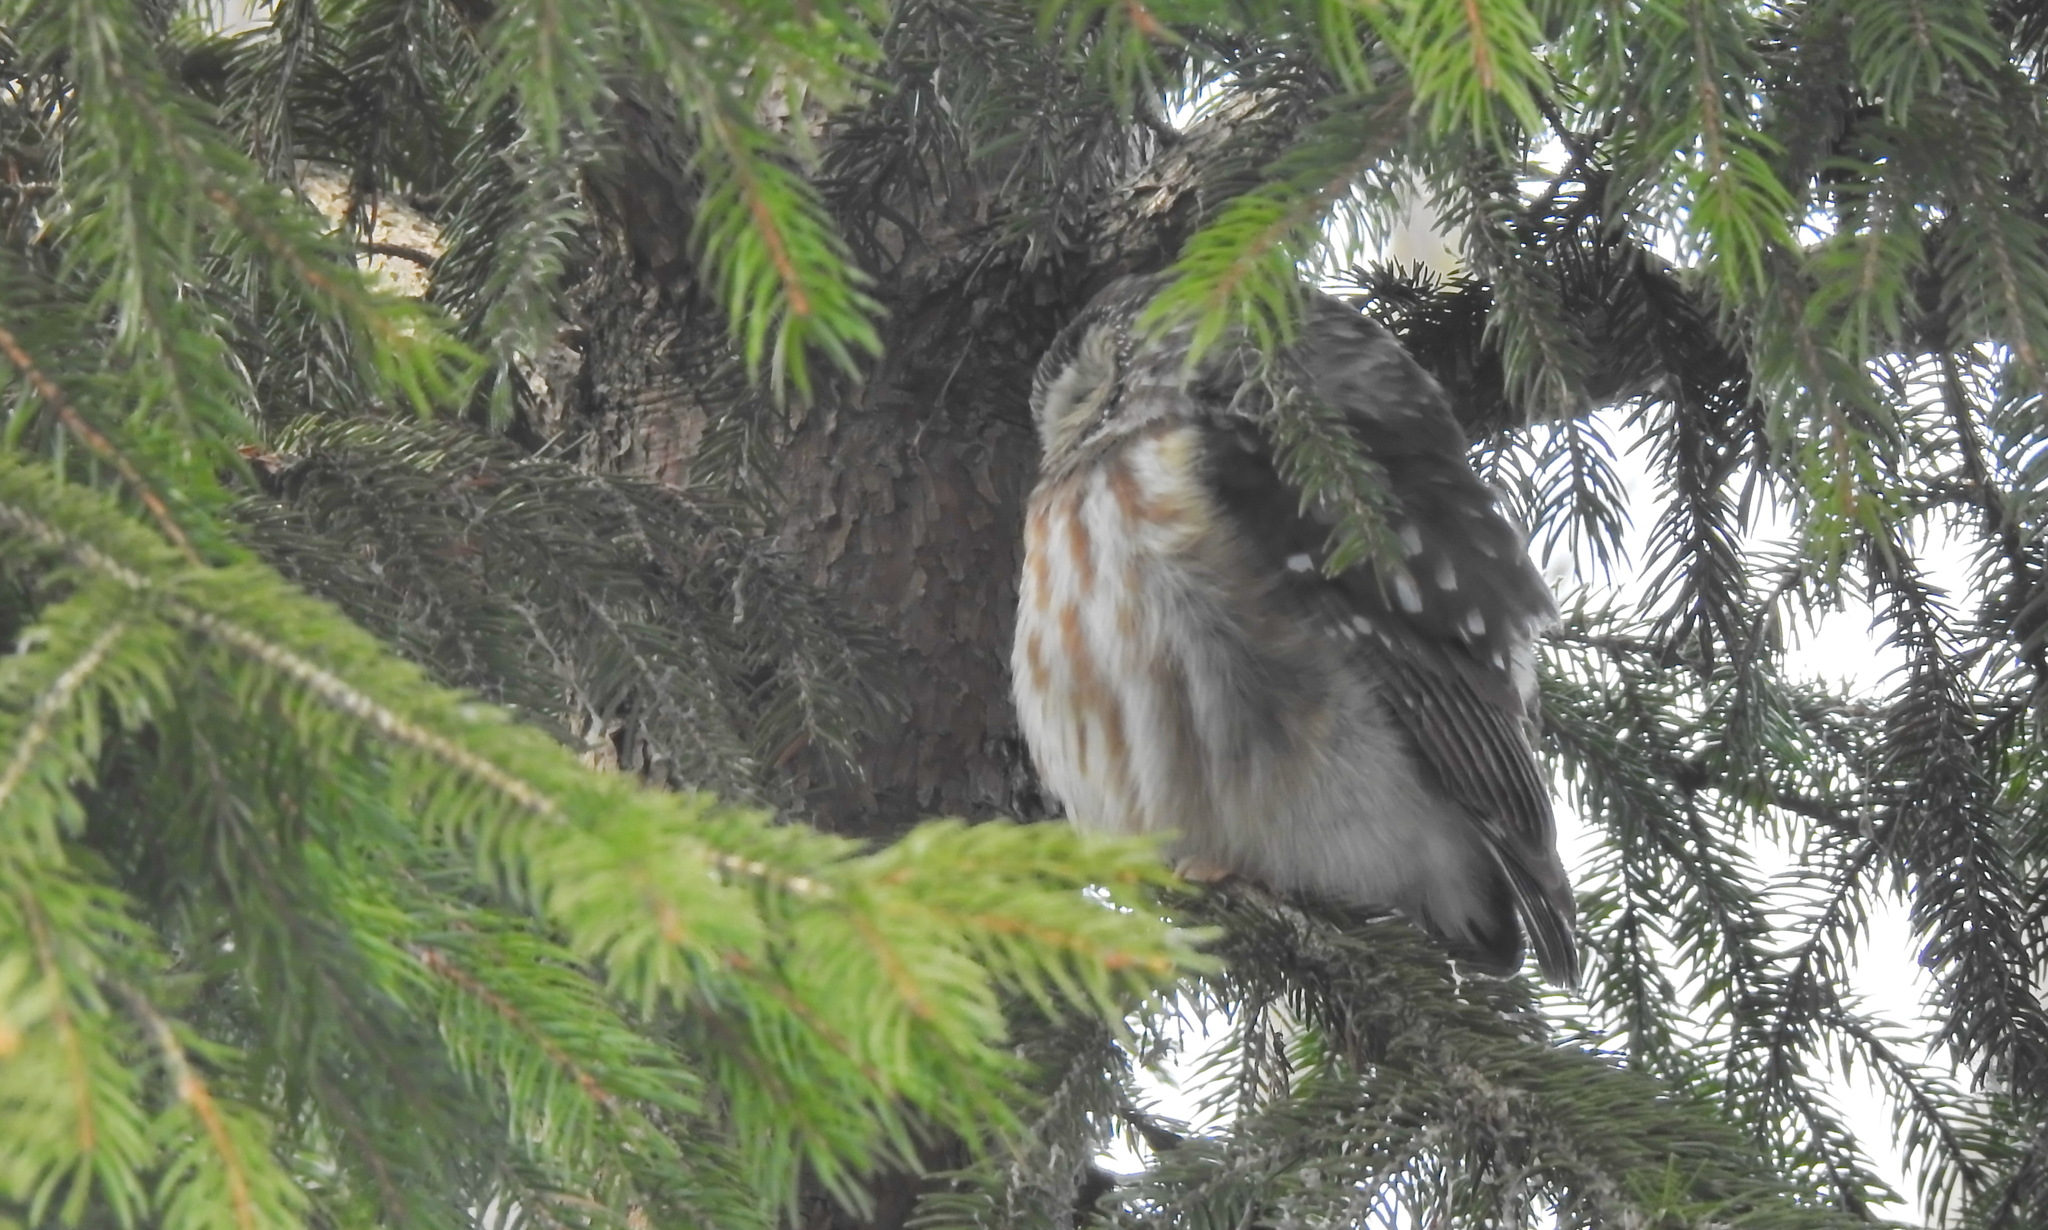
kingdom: Animalia
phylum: Chordata
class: Aves
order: Strigiformes
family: Strigidae
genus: Aegolius
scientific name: Aegolius acadicus
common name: Northern saw-whet owl
